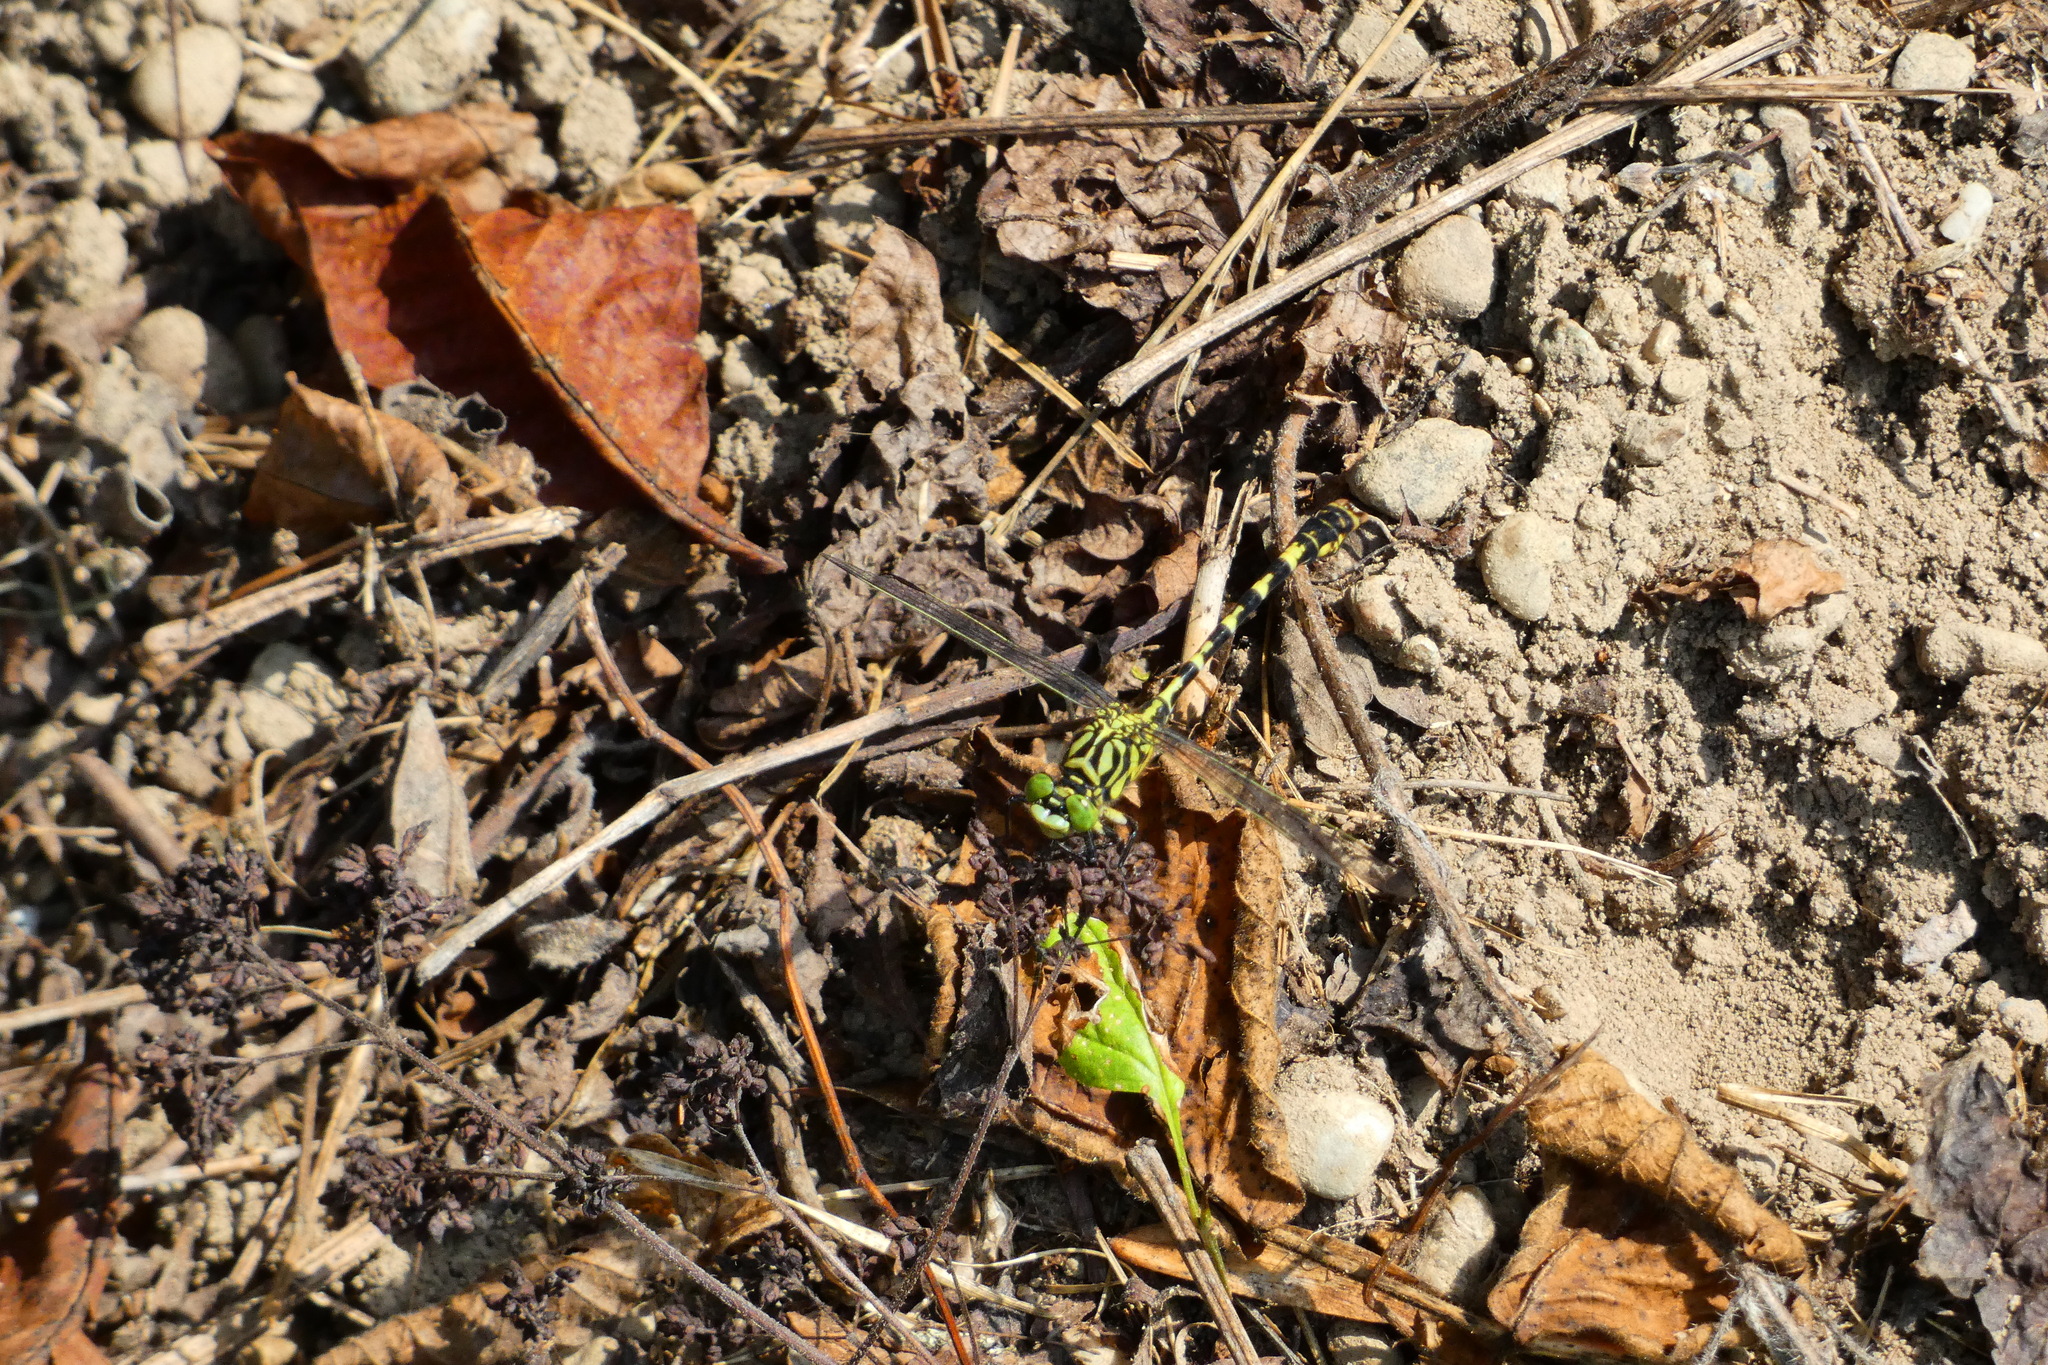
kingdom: Animalia
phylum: Arthropoda
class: Insecta
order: Odonata
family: Gomphidae
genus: Onychogomphus
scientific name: Onychogomphus forcipatus
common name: Small pincertail
